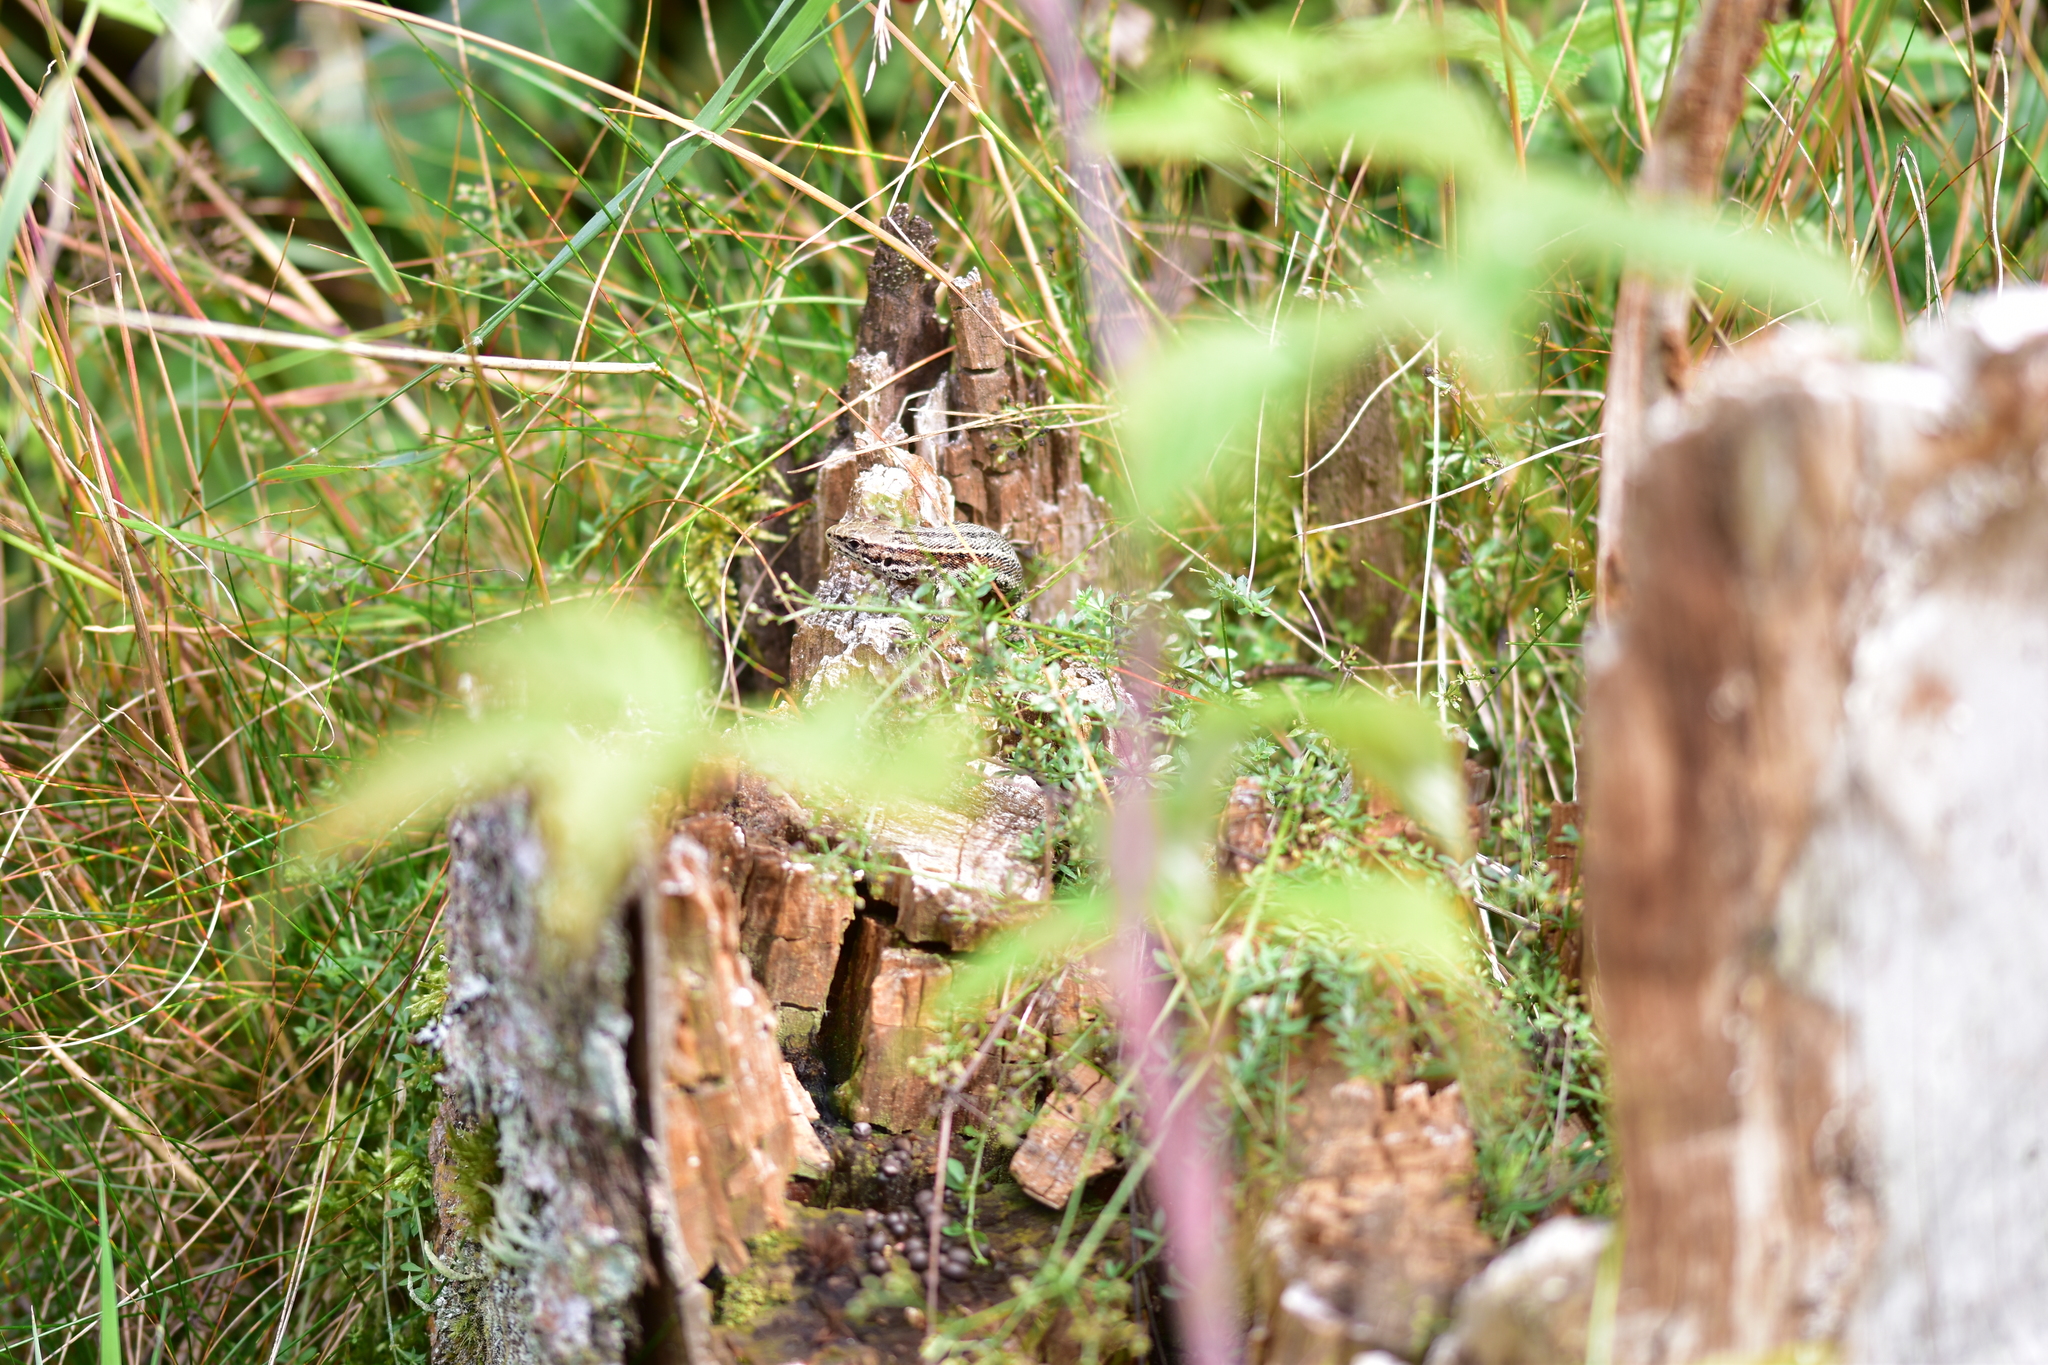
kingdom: Animalia
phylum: Chordata
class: Squamata
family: Lacertidae
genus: Zootoca
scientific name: Zootoca vivipara
